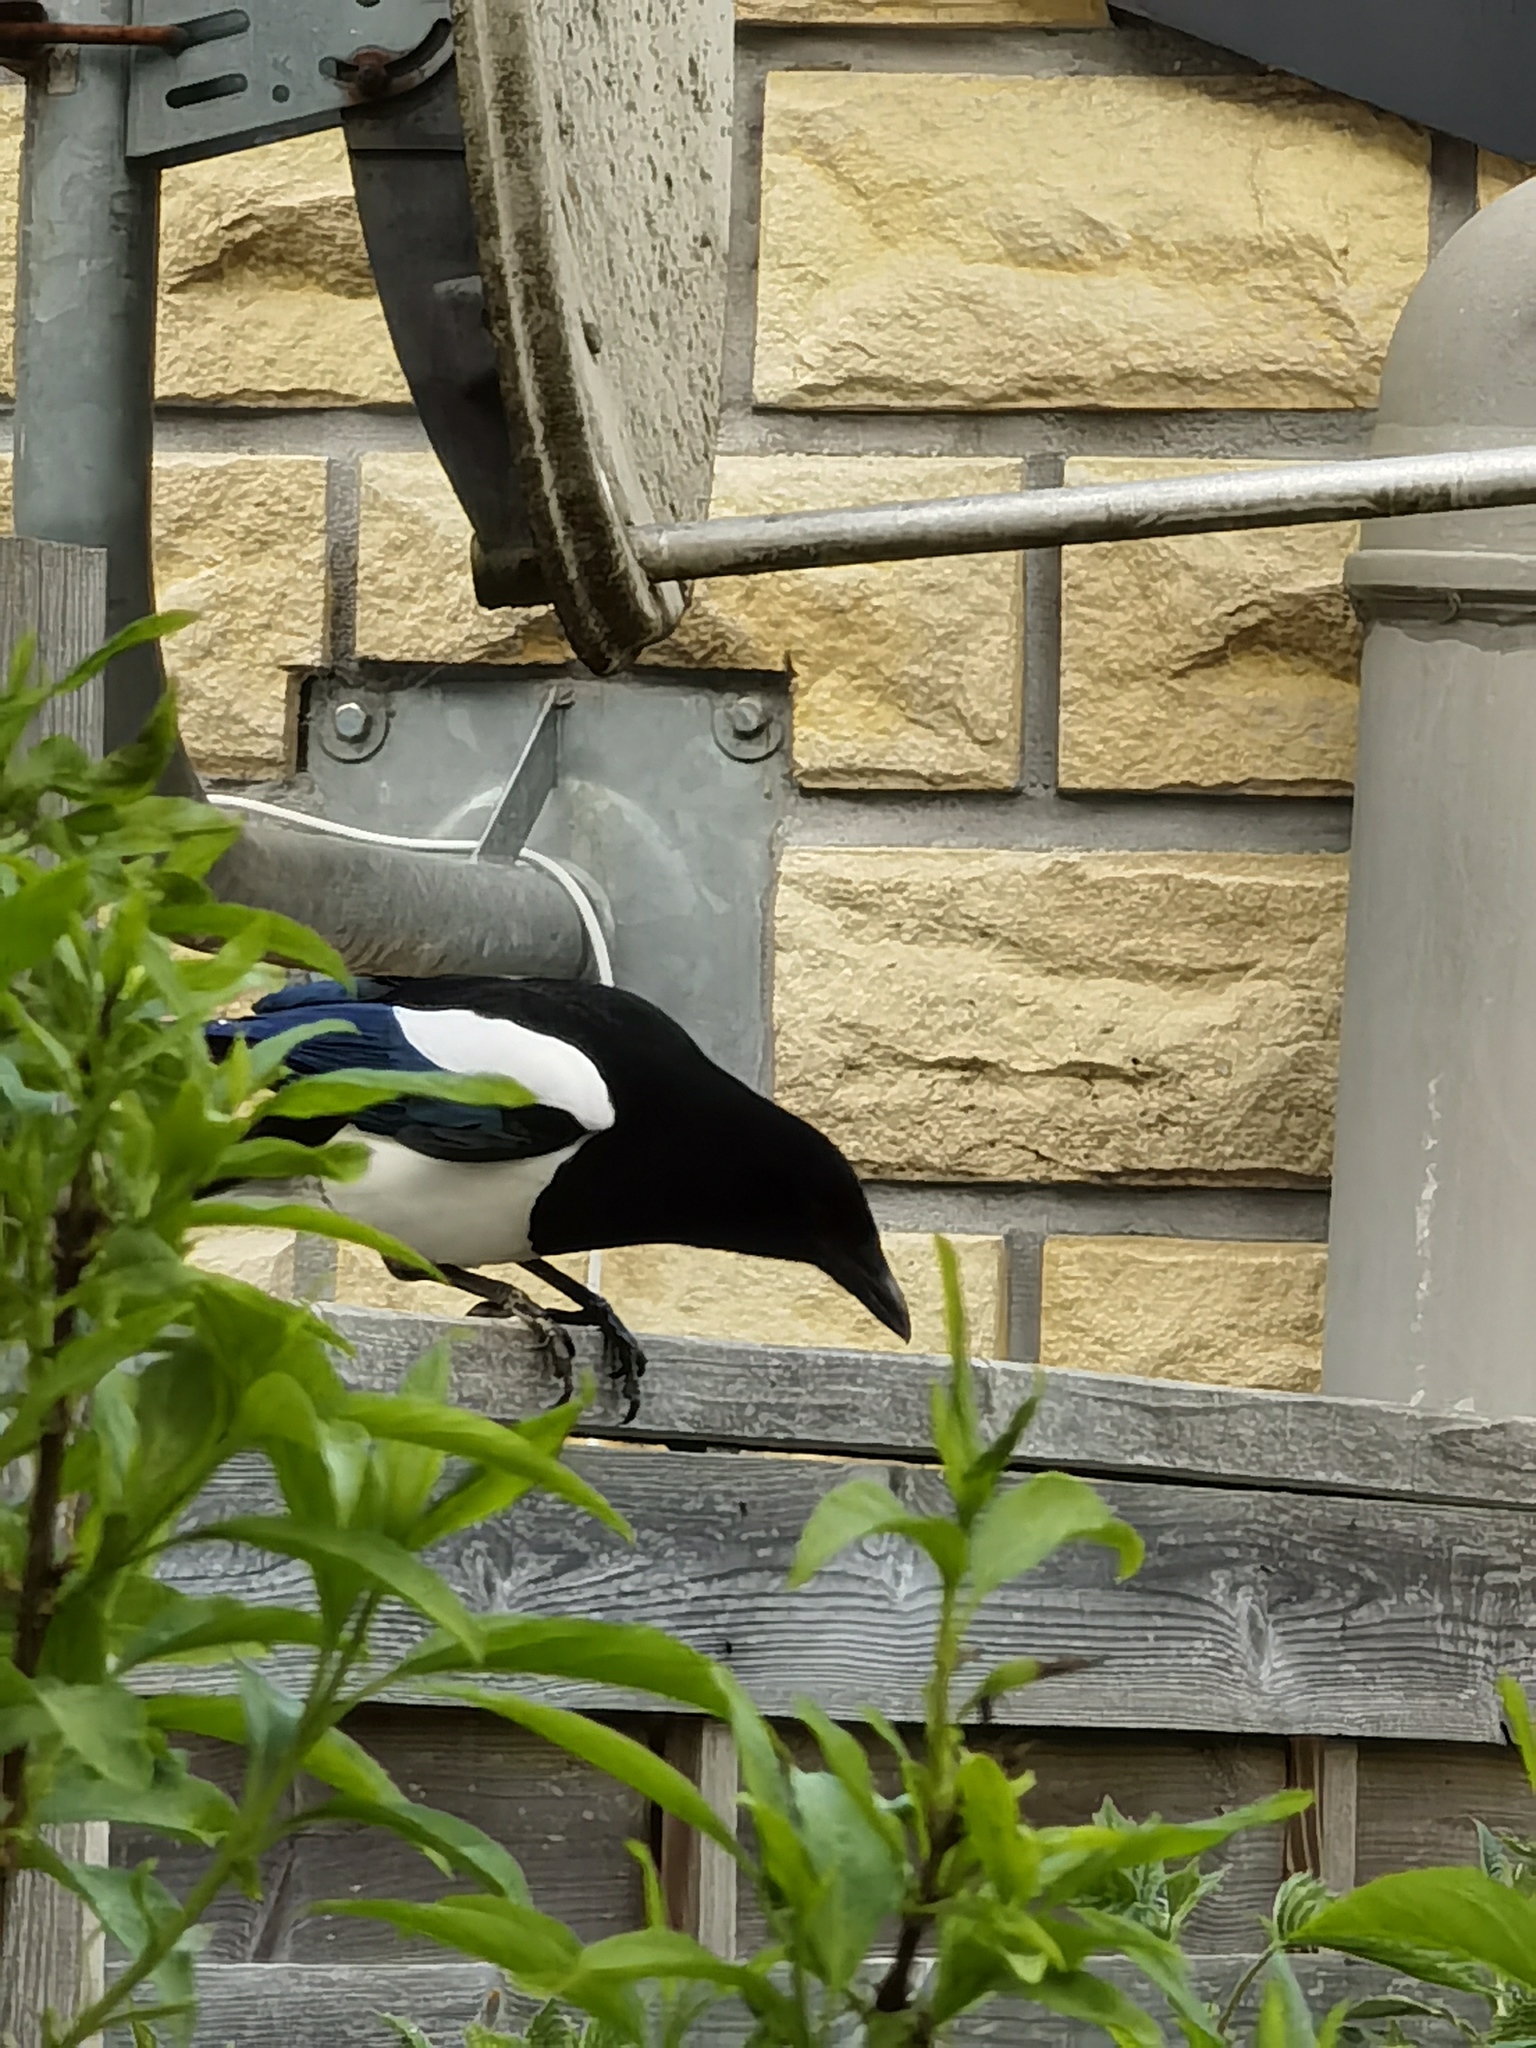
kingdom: Animalia
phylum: Chordata
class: Aves
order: Passeriformes
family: Corvidae
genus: Pica
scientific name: Pica pica
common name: Eurasian magpie
